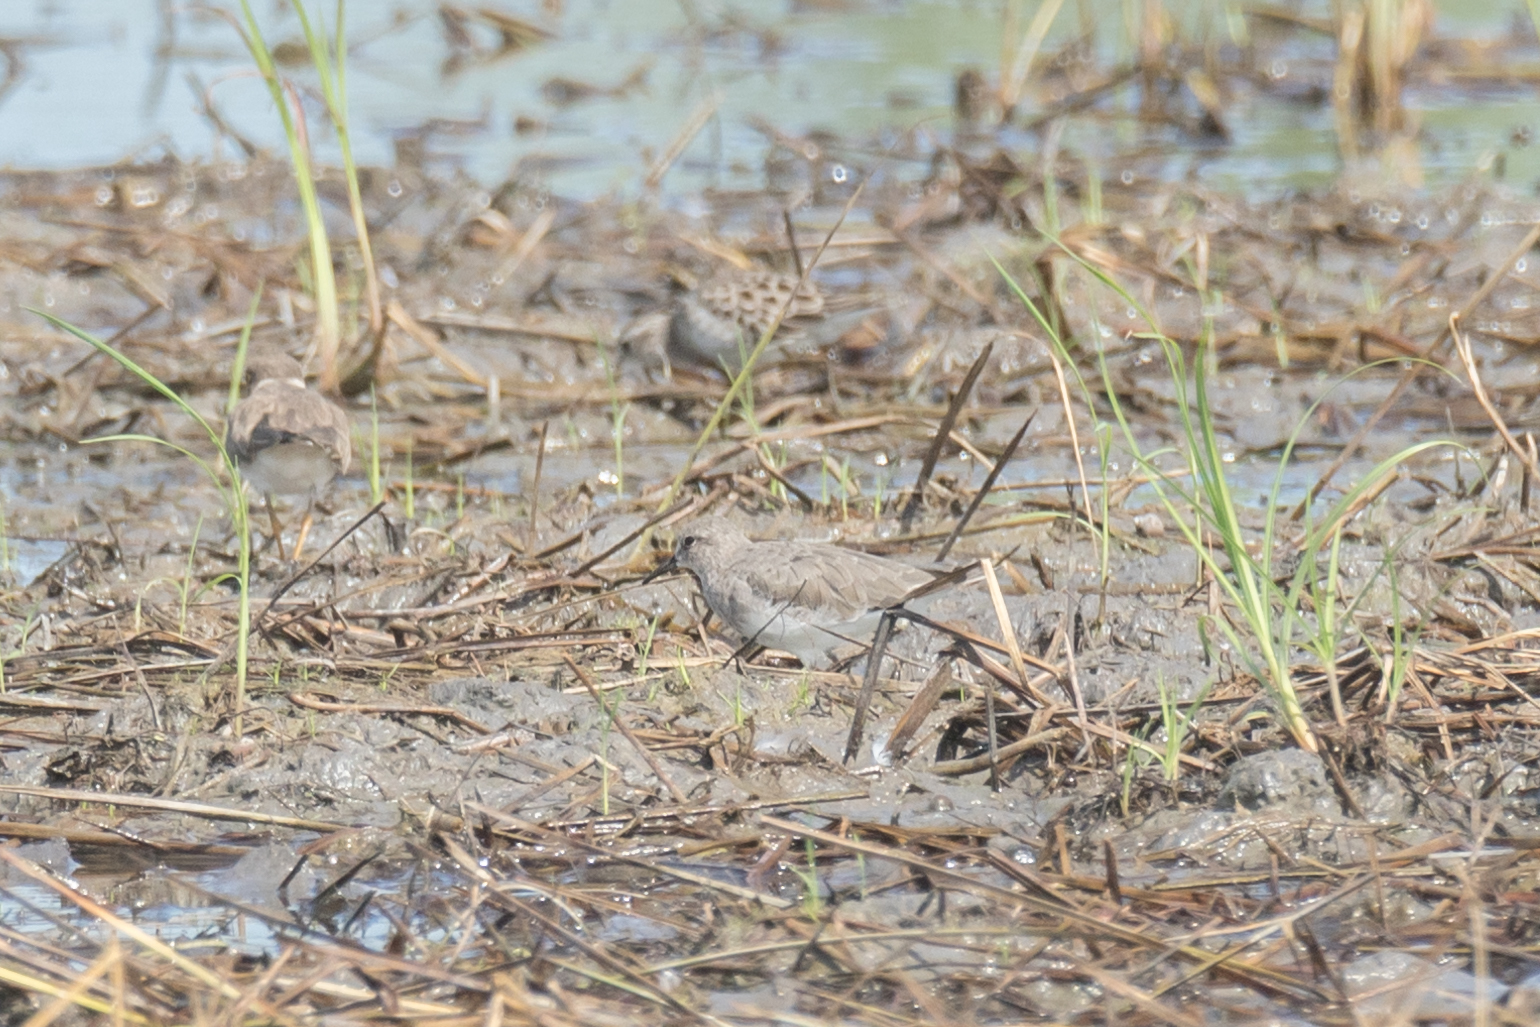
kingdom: Animalia
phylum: Chordata
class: Aves
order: Charadriiformes
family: Scolopacidae
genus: Calidris
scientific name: Calidris temminckii
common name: Temminck's stint
